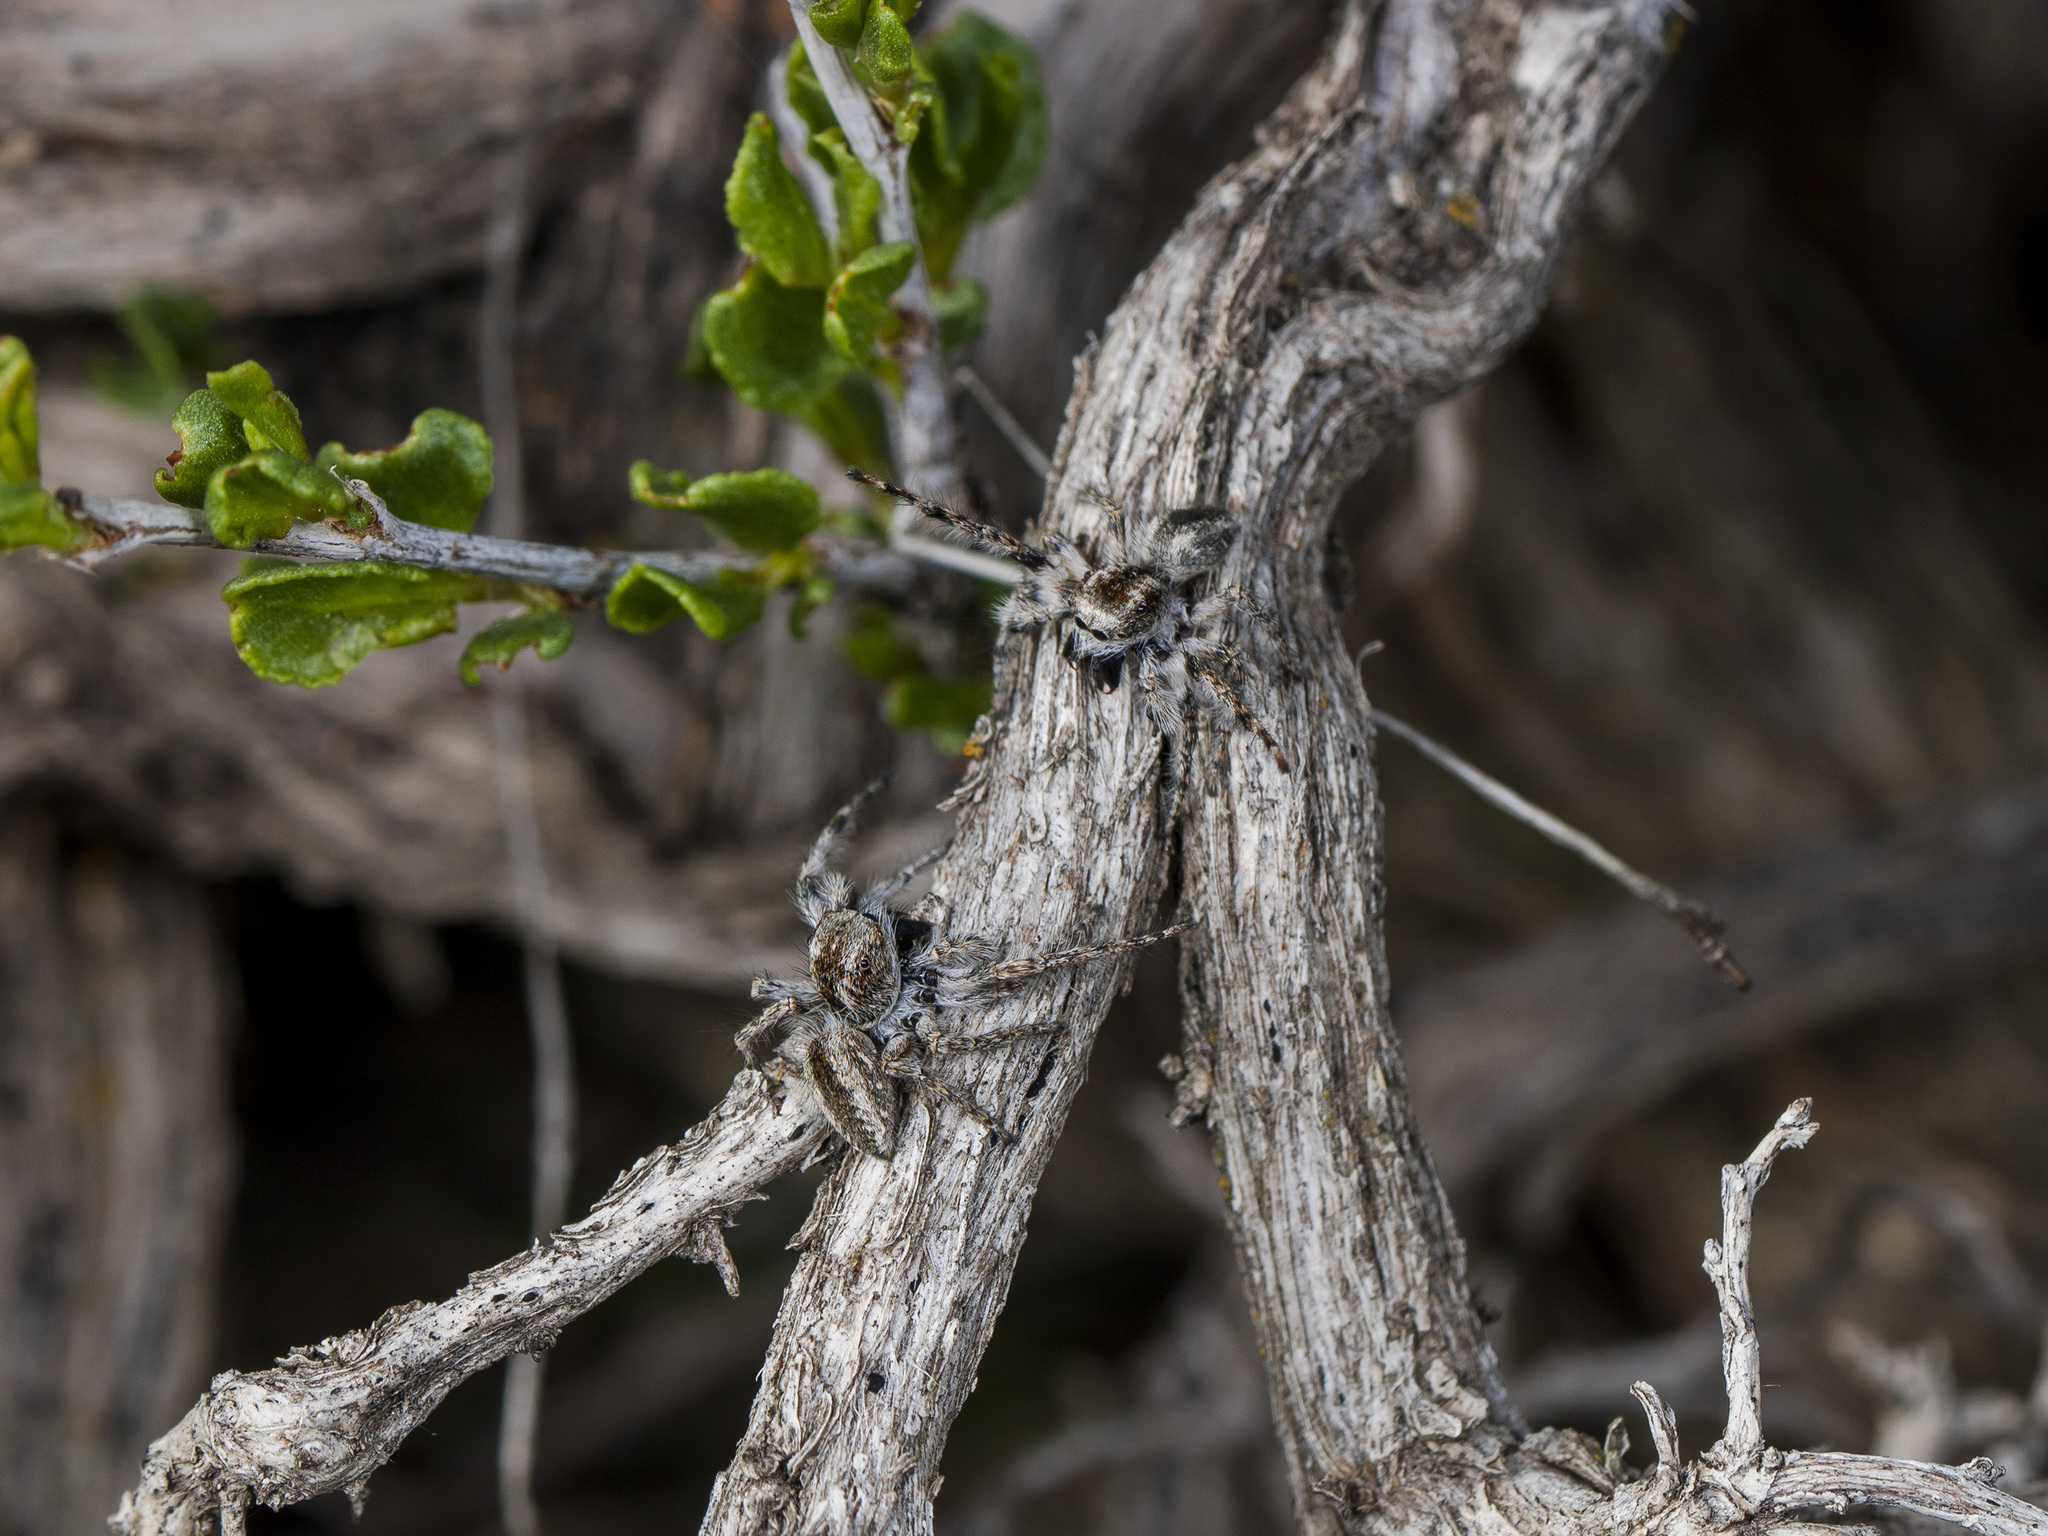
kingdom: Animalia
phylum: Arthropoda
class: Arachnida
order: Araneae
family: Salticidae
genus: Mogrus
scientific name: Mogrus larisae
